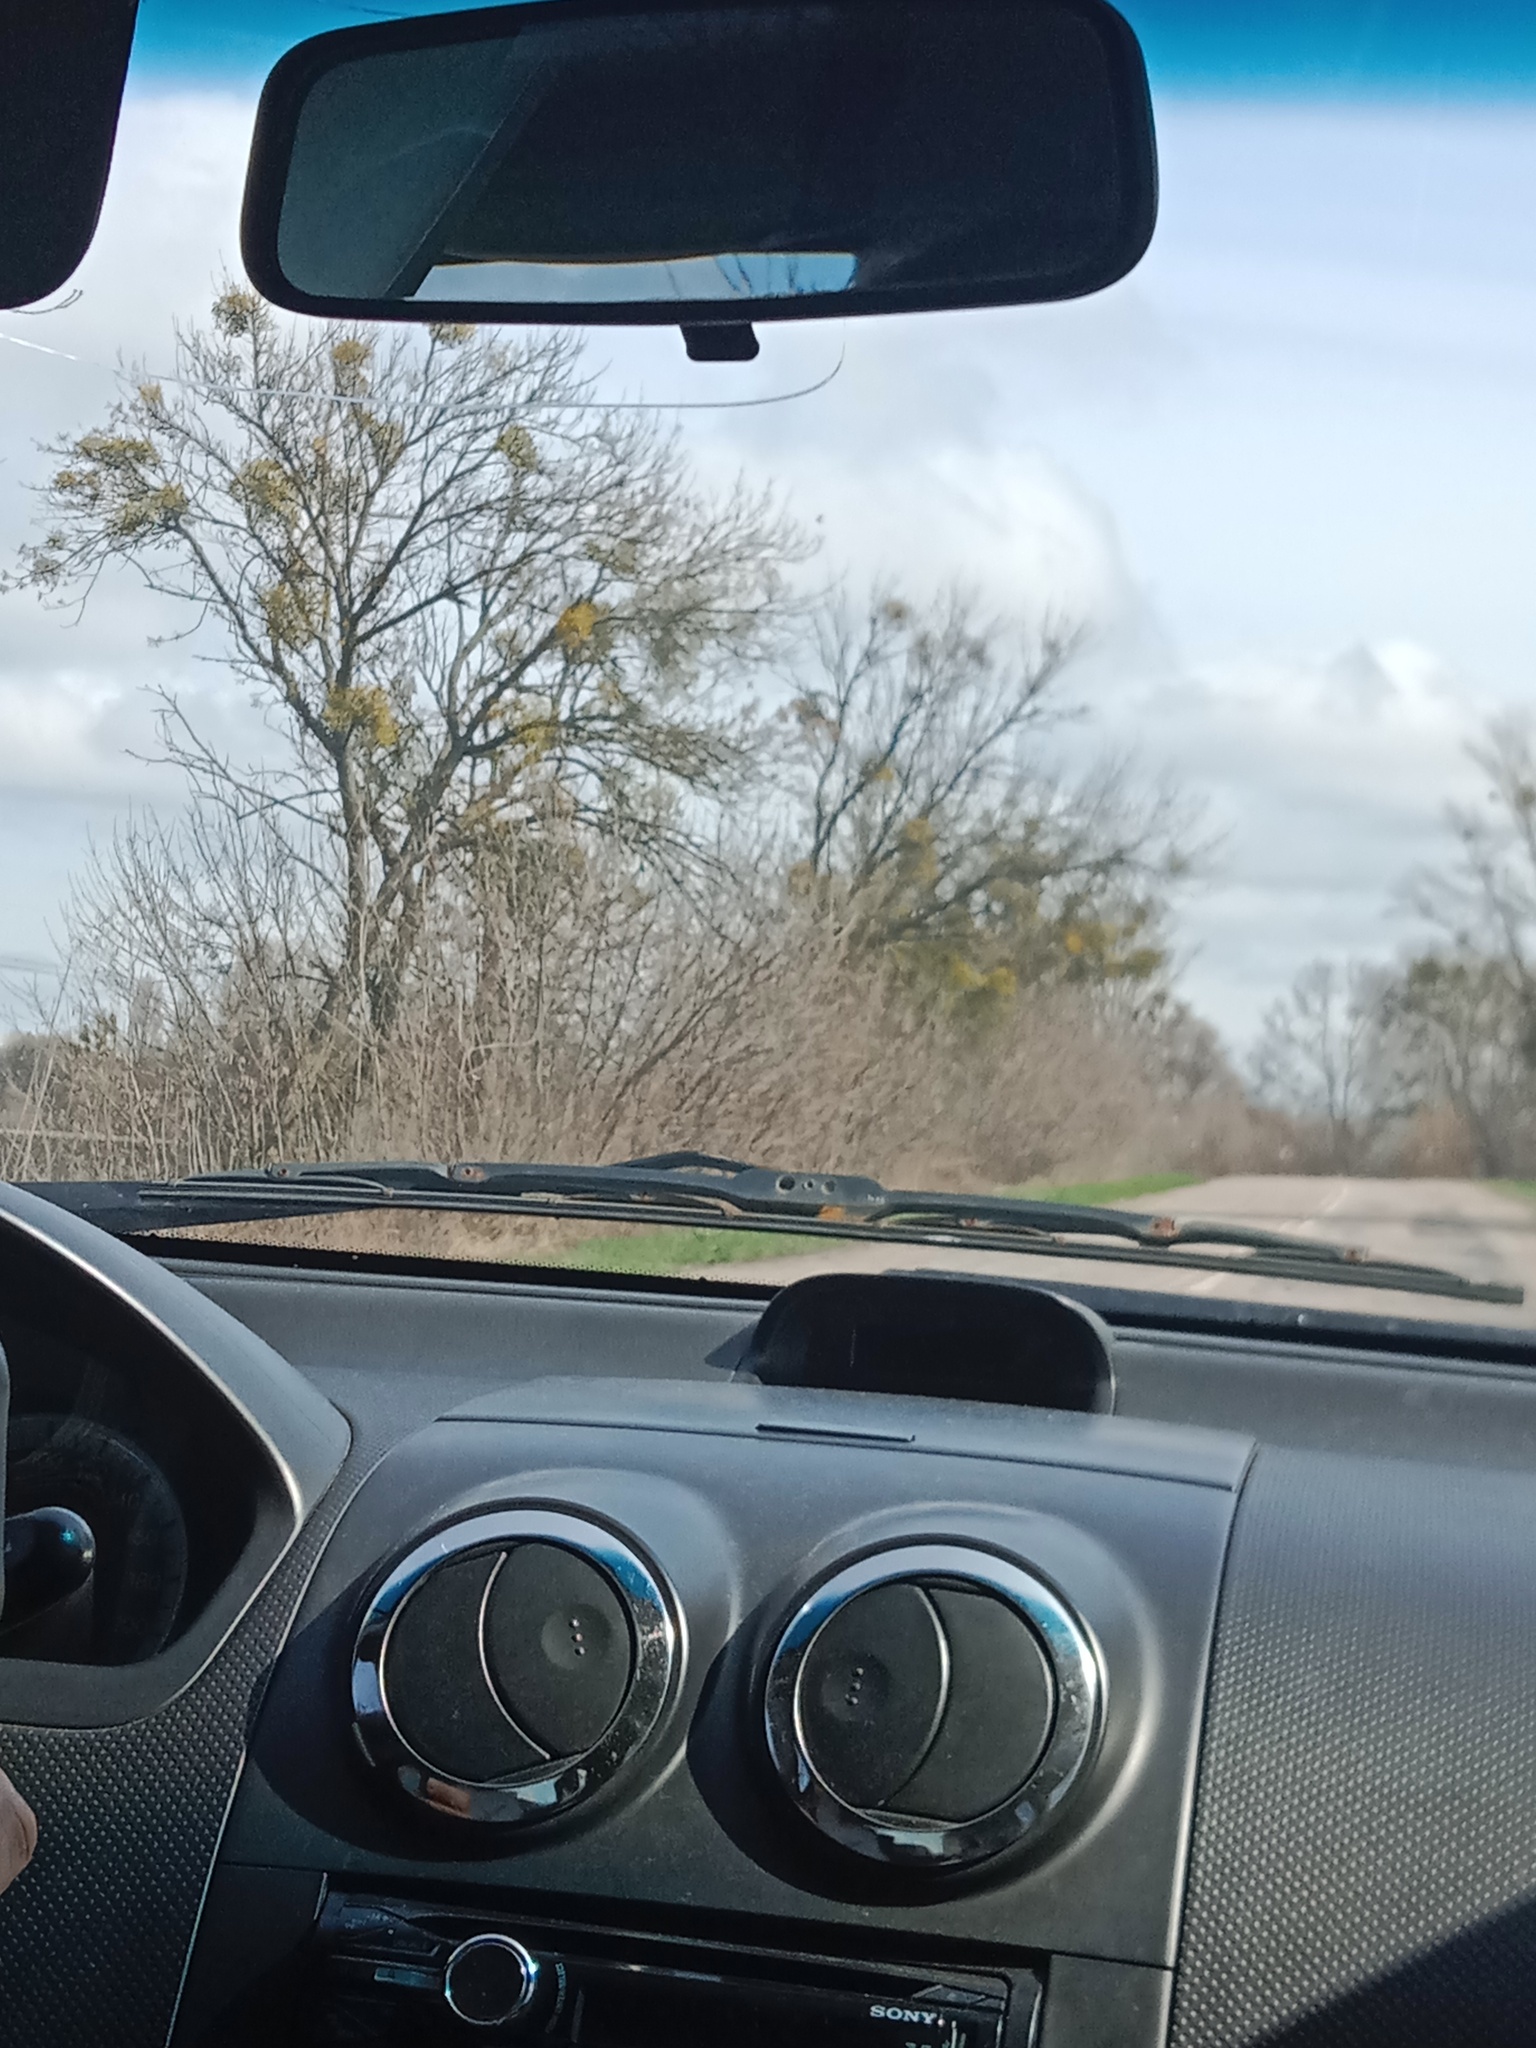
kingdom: Plantae
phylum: Tracheophyta
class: Magnoliopsida
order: Santalales
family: Viscaceae
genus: Viscum
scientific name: Viscum album
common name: Mistletoe
